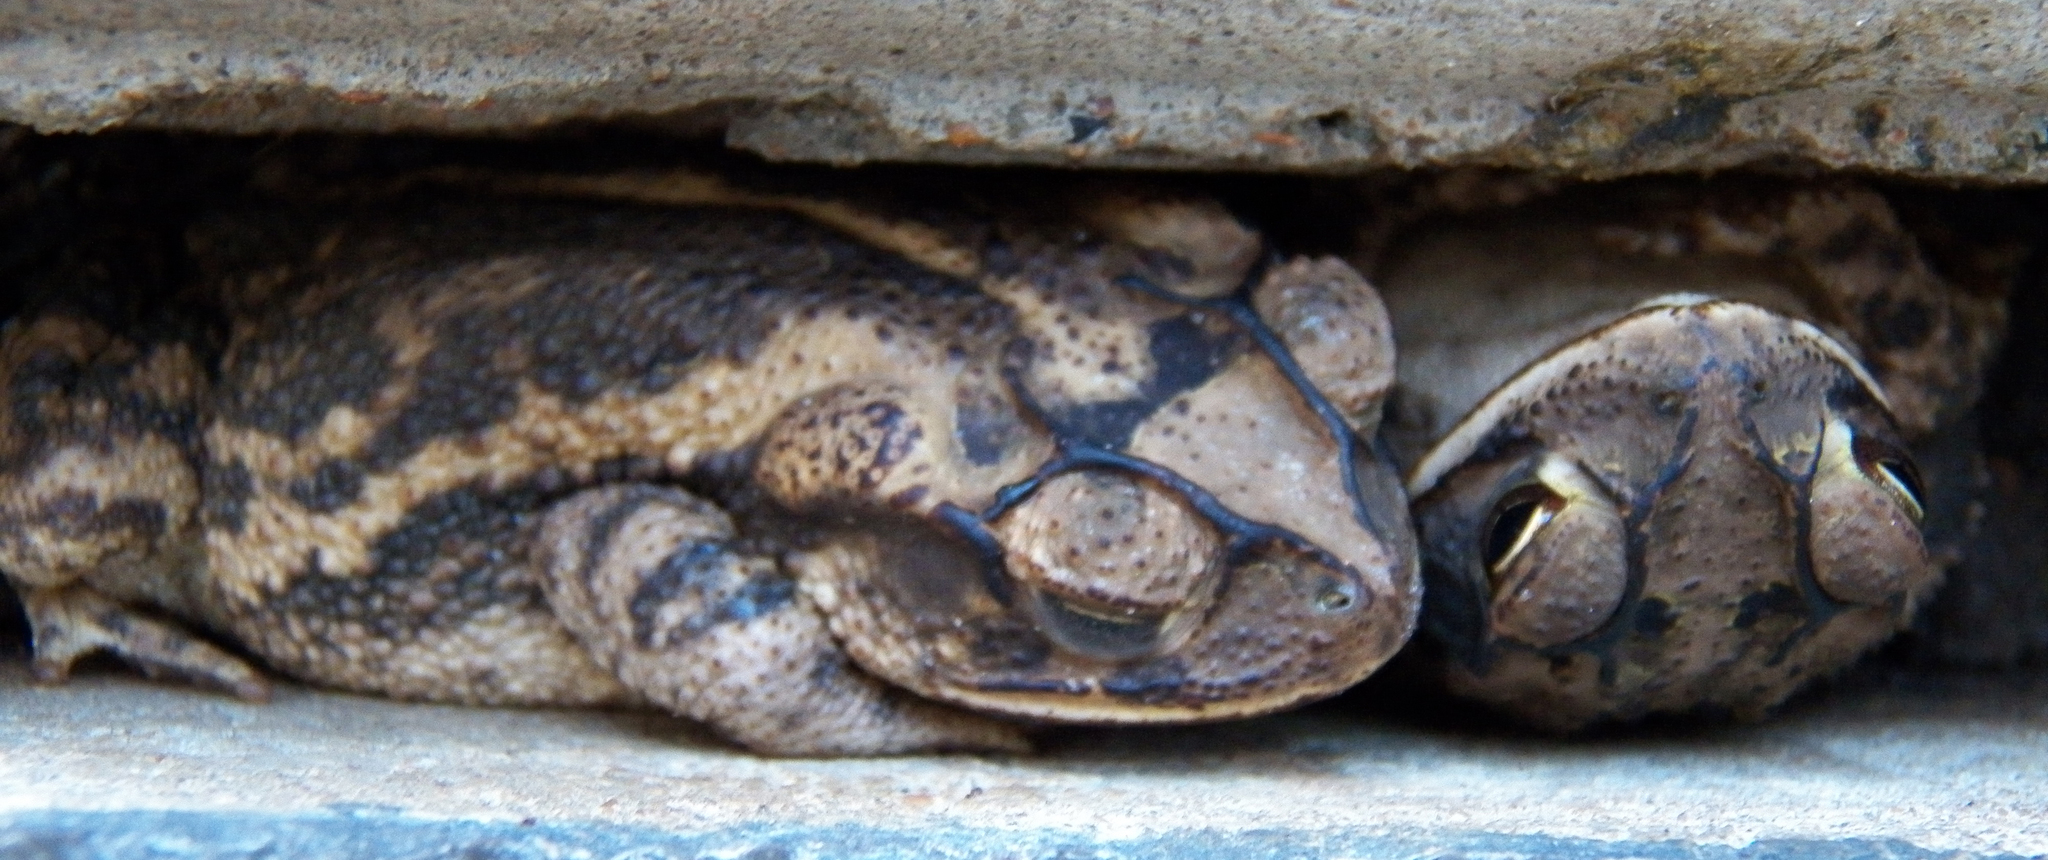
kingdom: Animalia
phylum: Chordata
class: Amphibia
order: Anura
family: Bufonidae
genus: Incilius
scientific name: Incilius nebulifer
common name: Gulf coast toad
